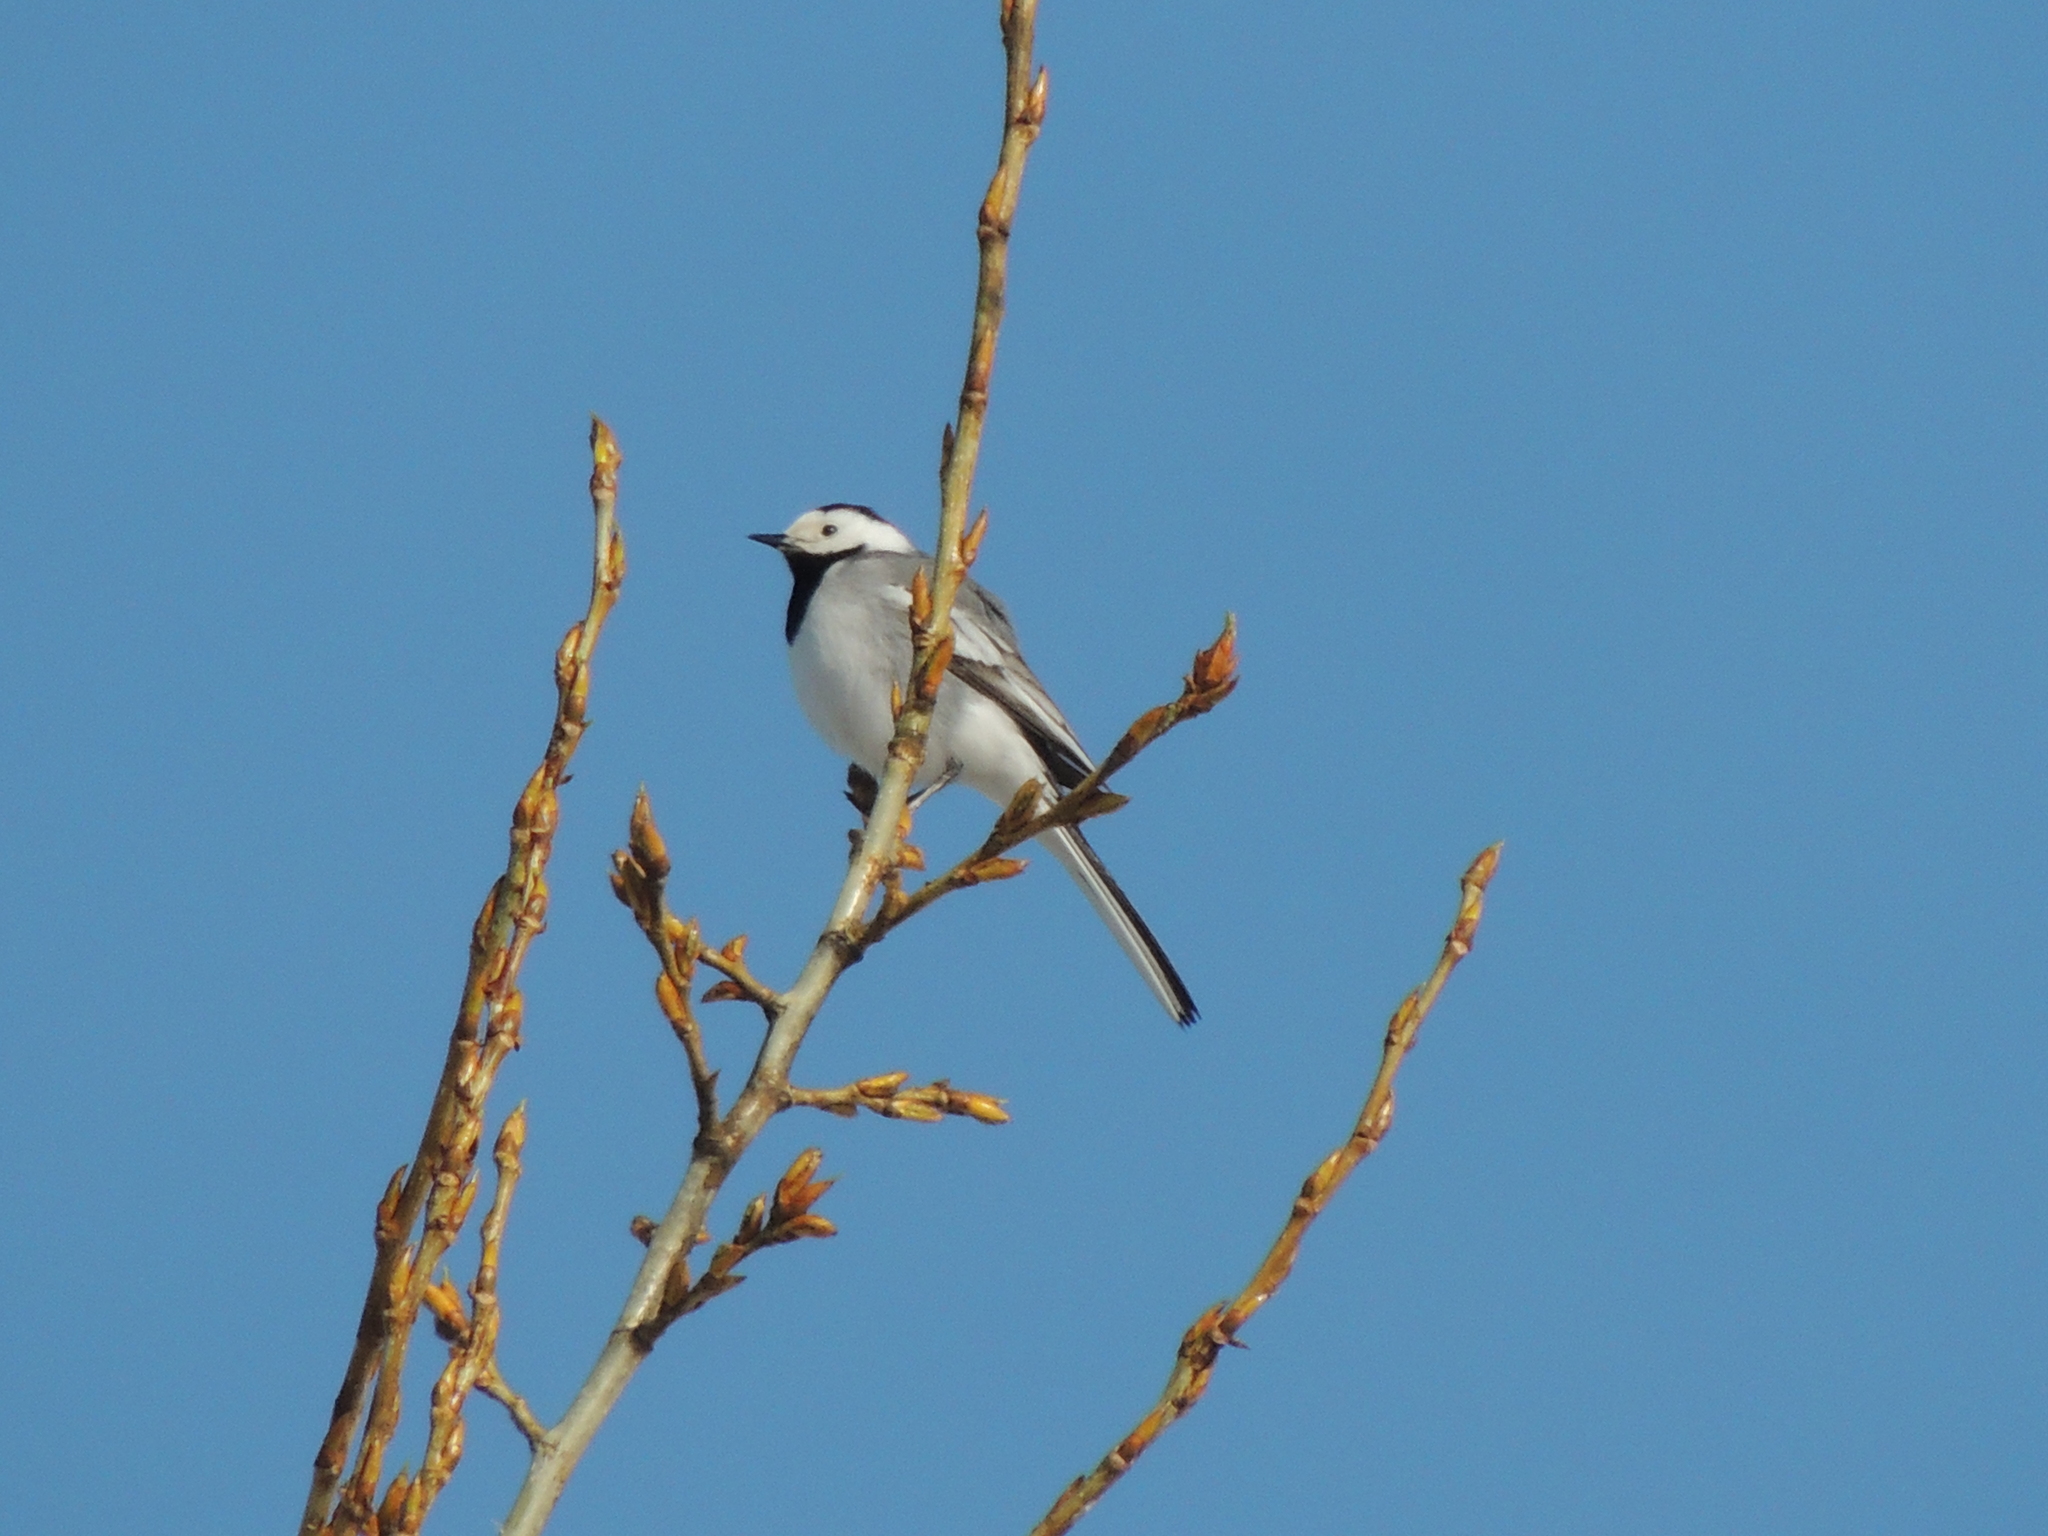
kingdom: Animalia
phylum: Chordata
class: Aves
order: Passeriformes
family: Motacillidae
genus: Motacilla
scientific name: Motacilla alba
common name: White wagtail
